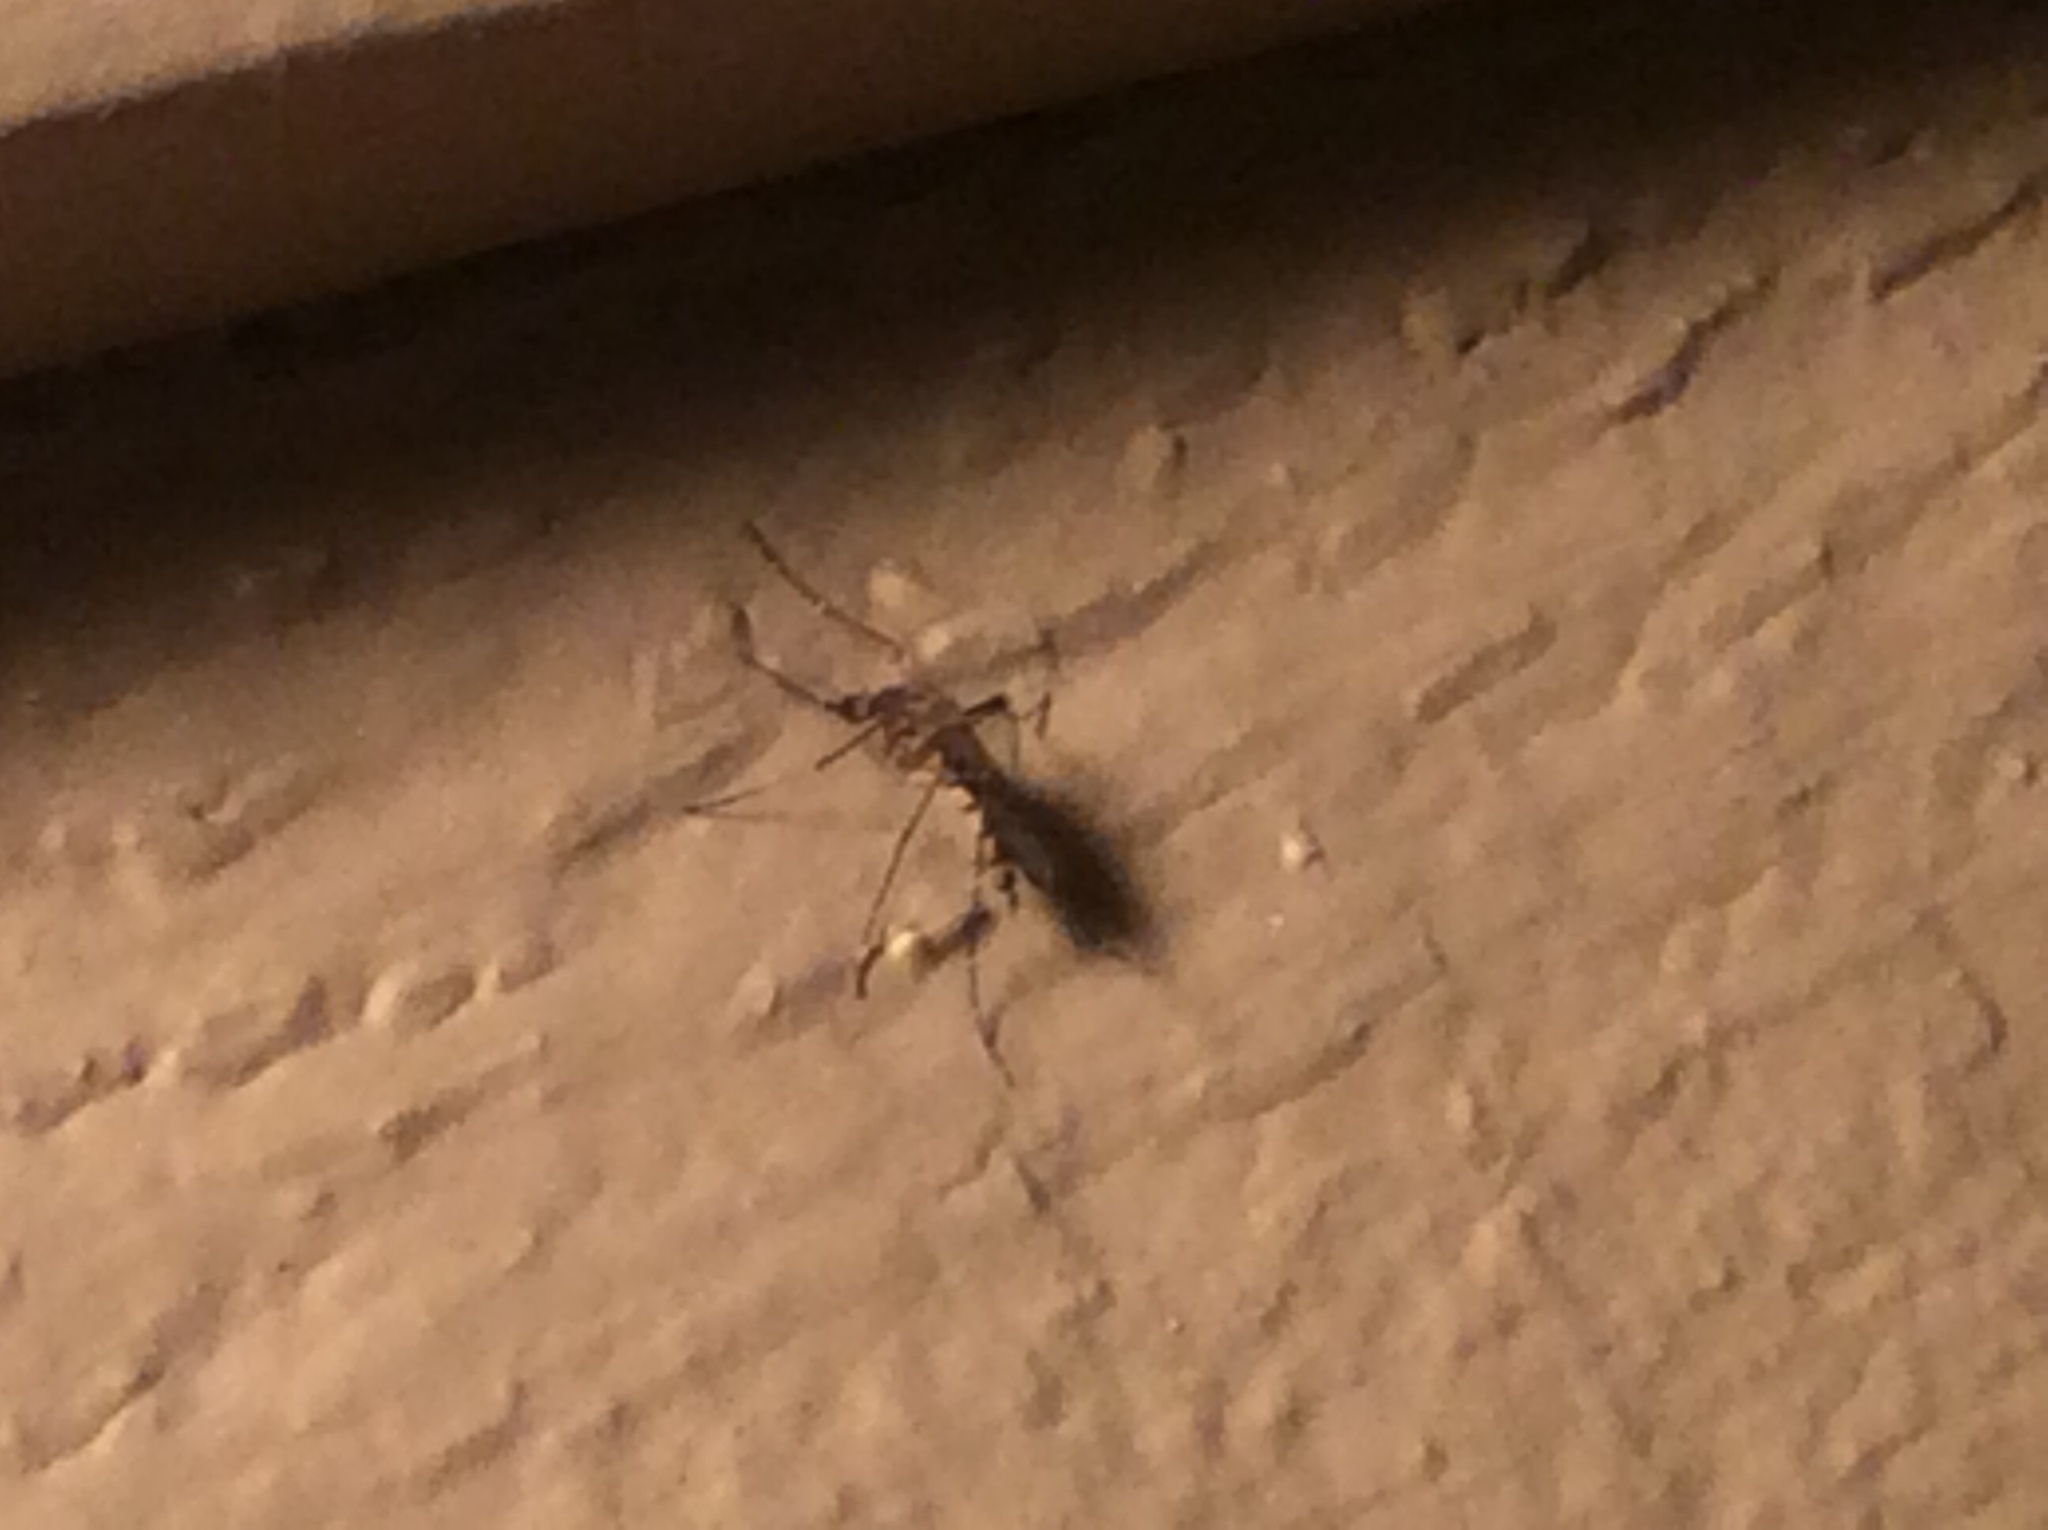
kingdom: Animalia
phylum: Arthropoda
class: Insecta
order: Diptera
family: Culicidae
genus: Aedes
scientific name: Aedes vexans
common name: Inland floodwater mosquito
